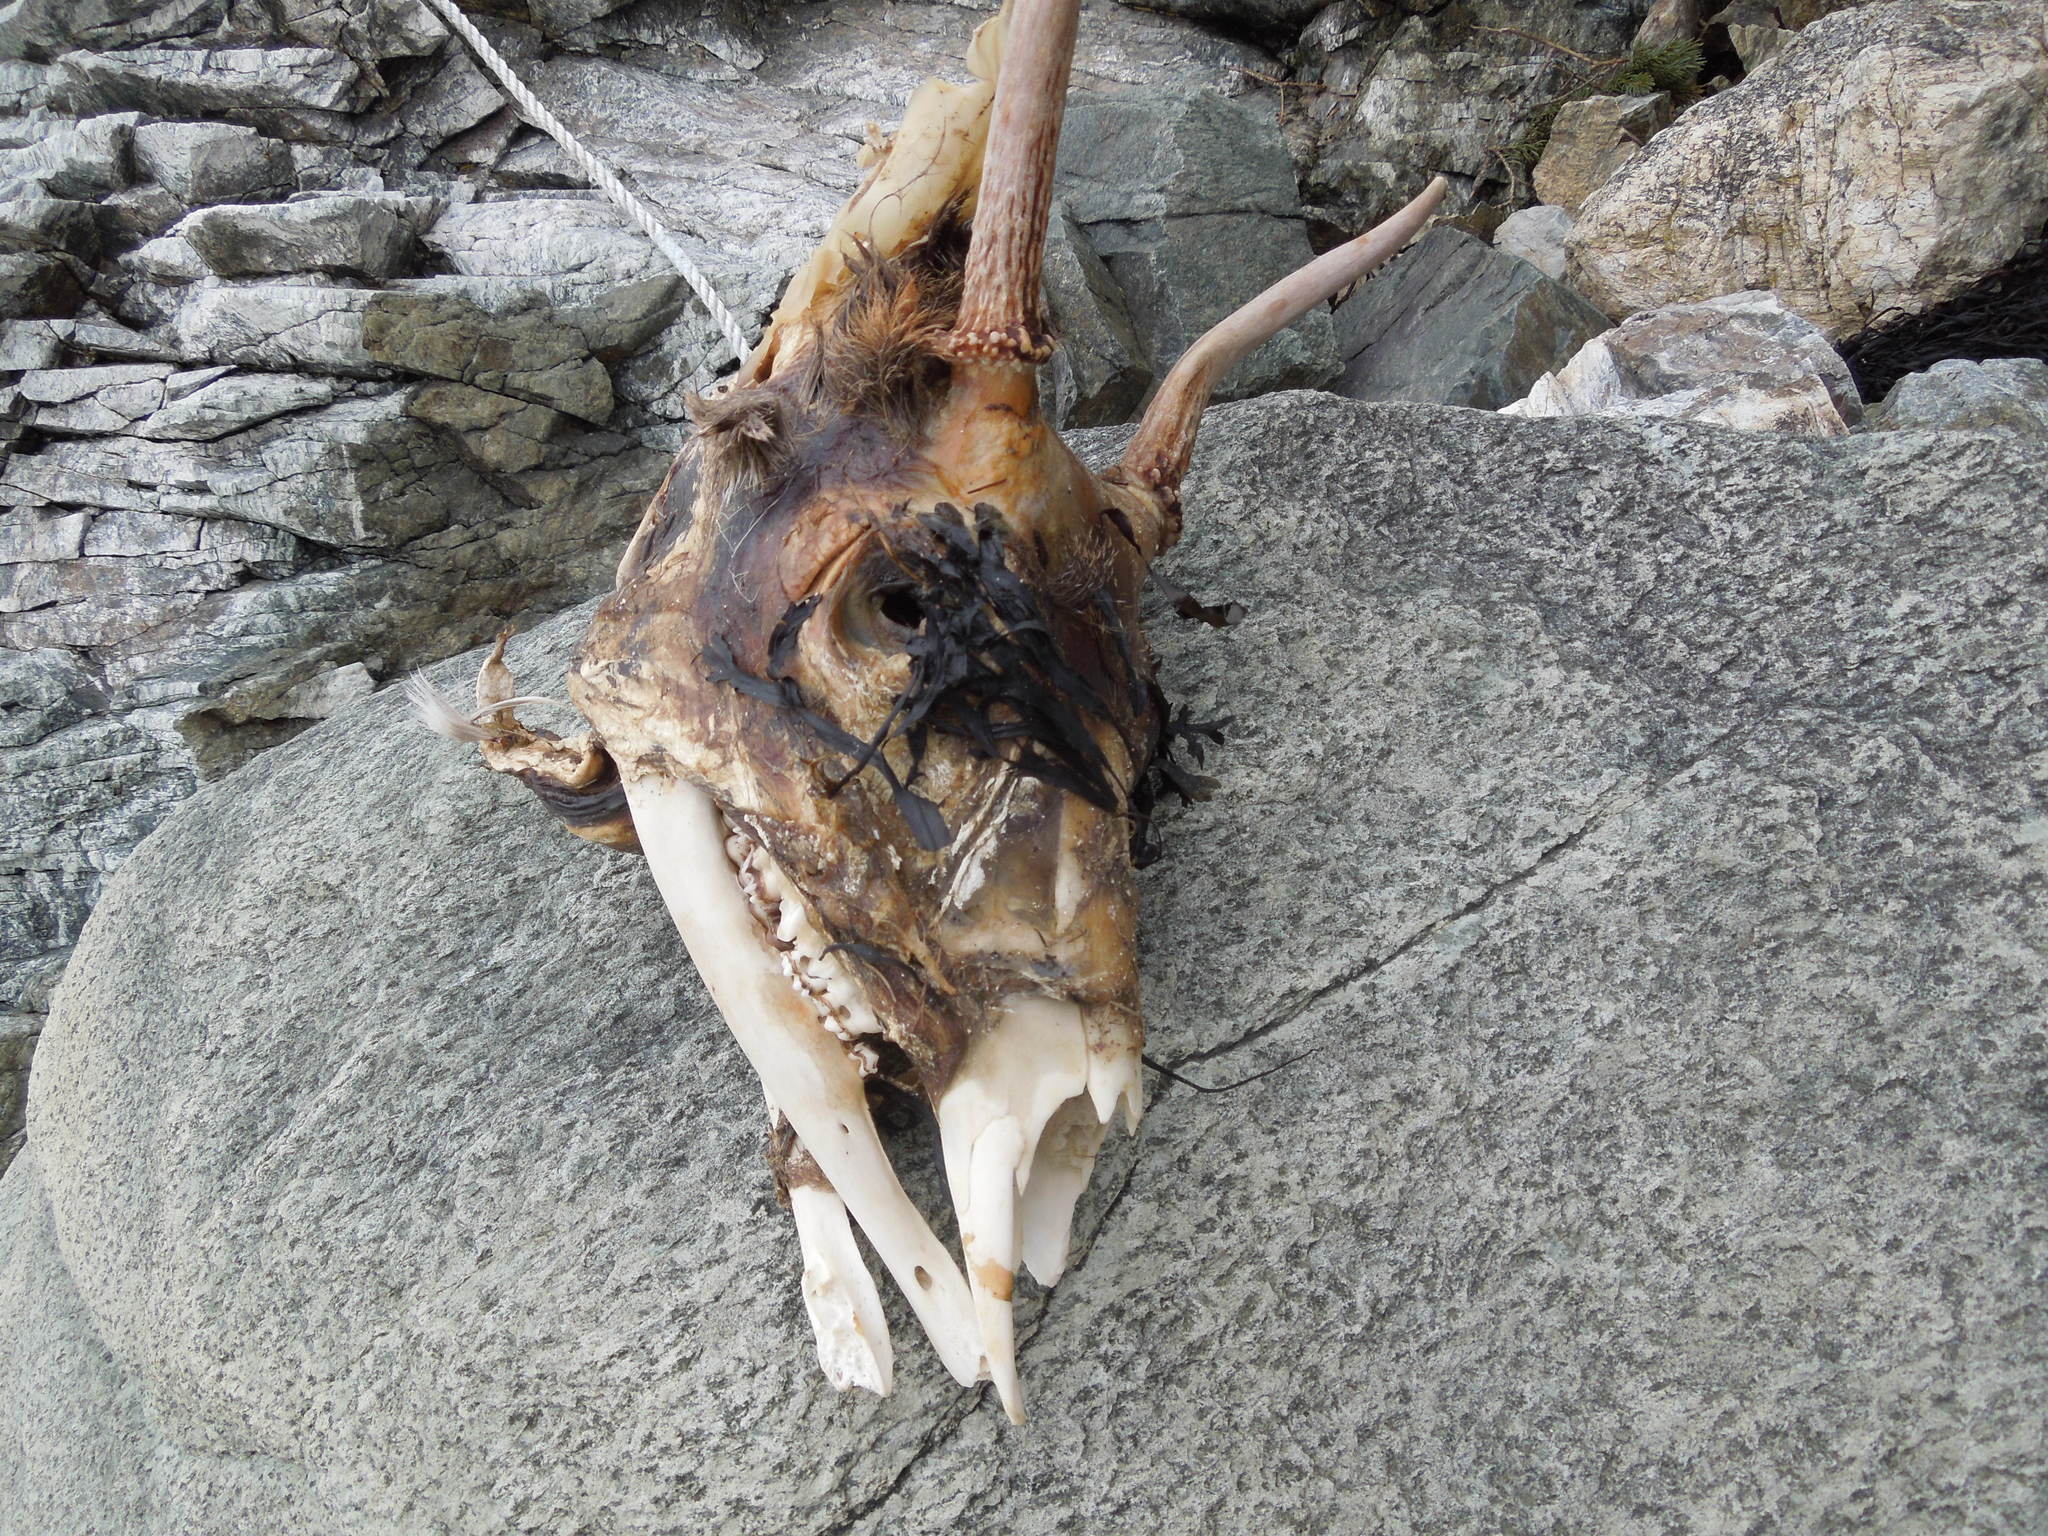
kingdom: Animalia
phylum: Chordata
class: Mammalia
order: Artiodactyla
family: Cervidae
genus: Odocoileus
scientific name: Odocoileus virginianus
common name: White-tailed deer
